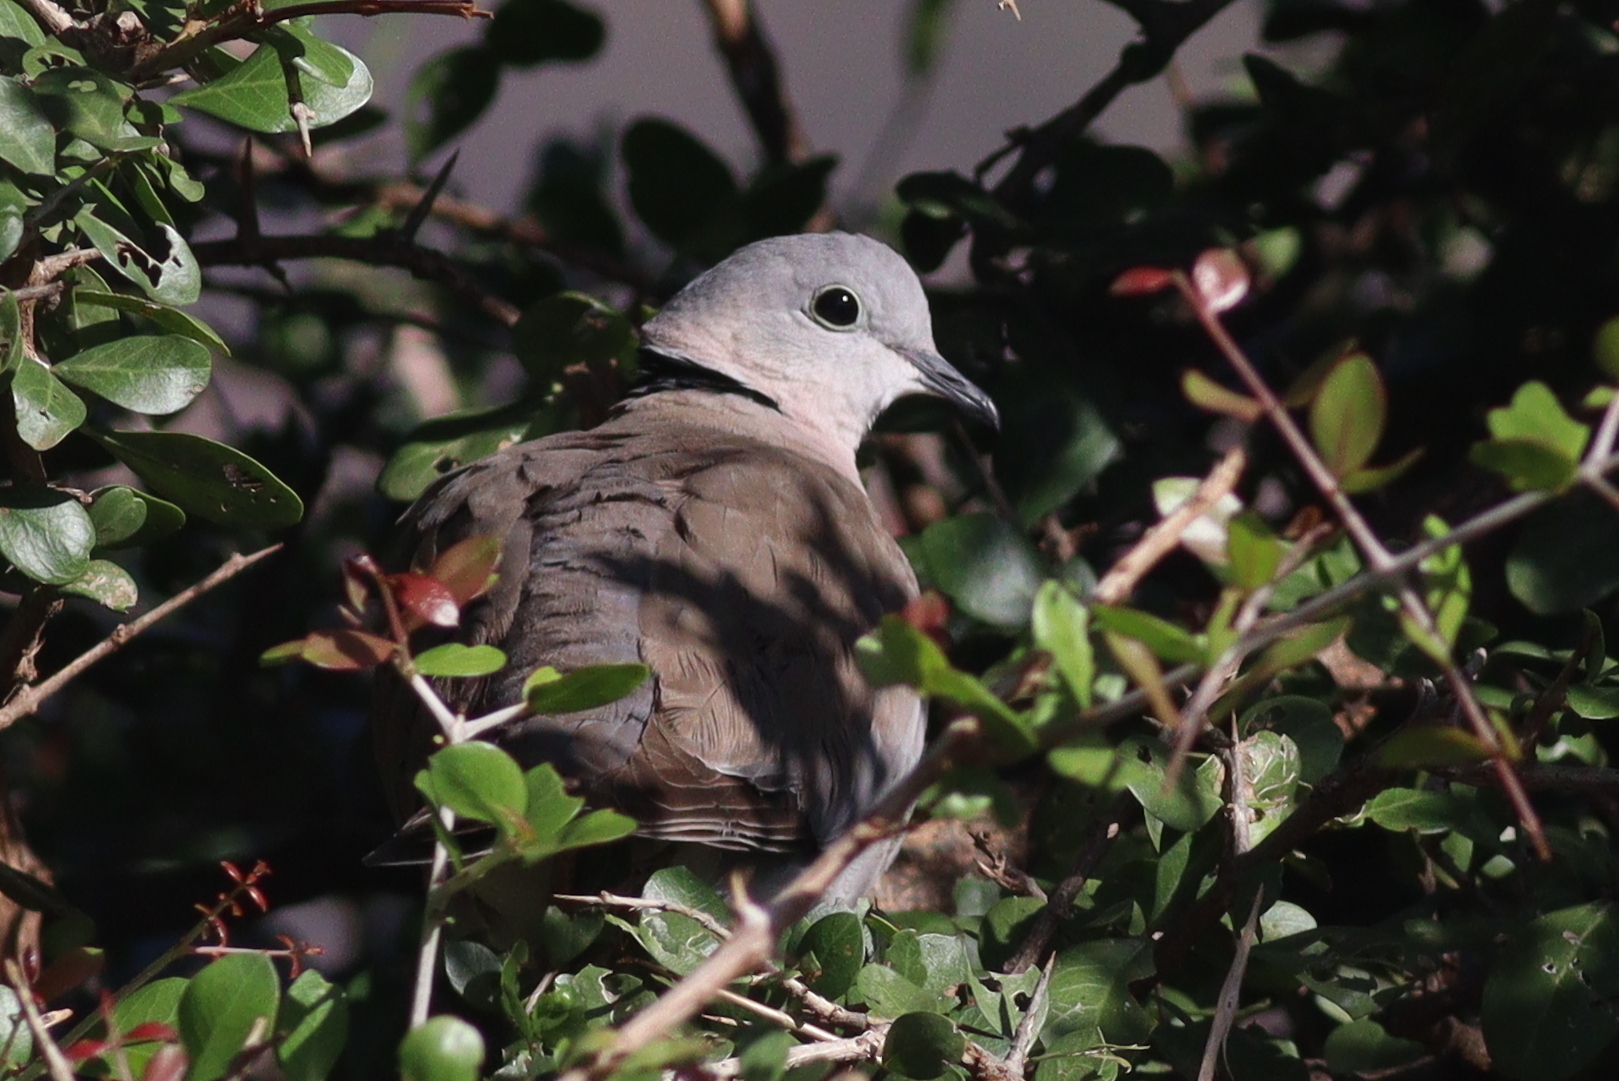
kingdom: Animalia
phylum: Chordata
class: Aves
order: Columbiformes
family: Columbidae
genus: Streptopelia
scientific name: Streptopelia capicola
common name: Ring-necked dove
